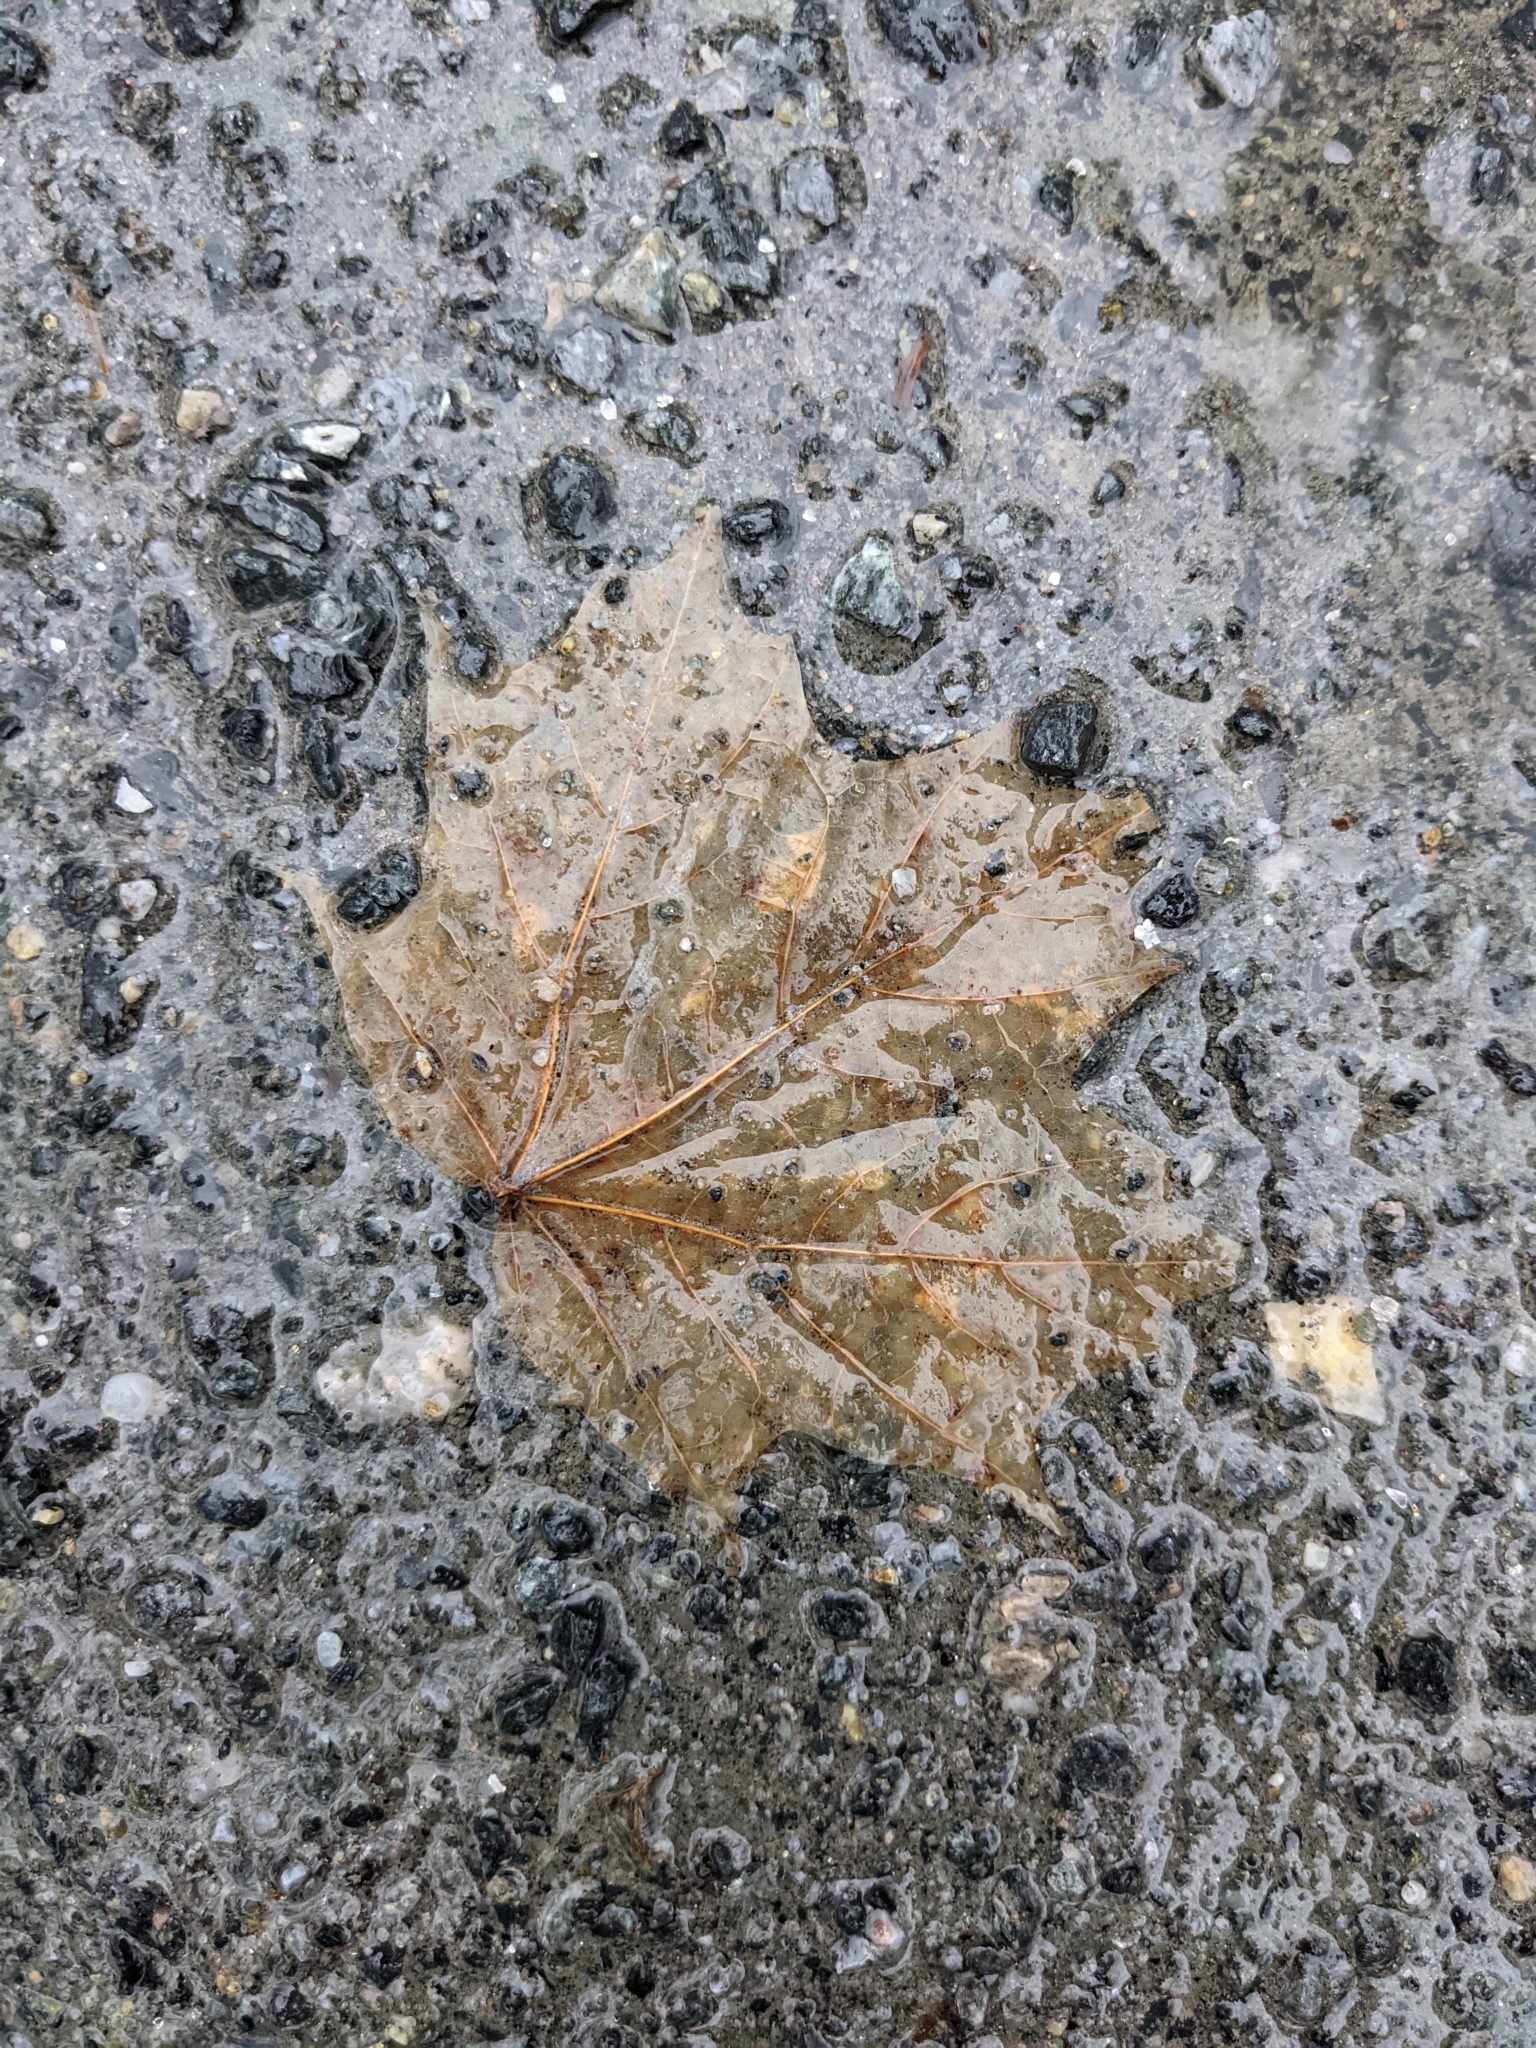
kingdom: Plantae
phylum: Tracheophyta
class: Magnoliopsida
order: Sapindales
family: Sapindaceae
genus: Acer
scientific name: Acer saccharum
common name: Sugar maple
